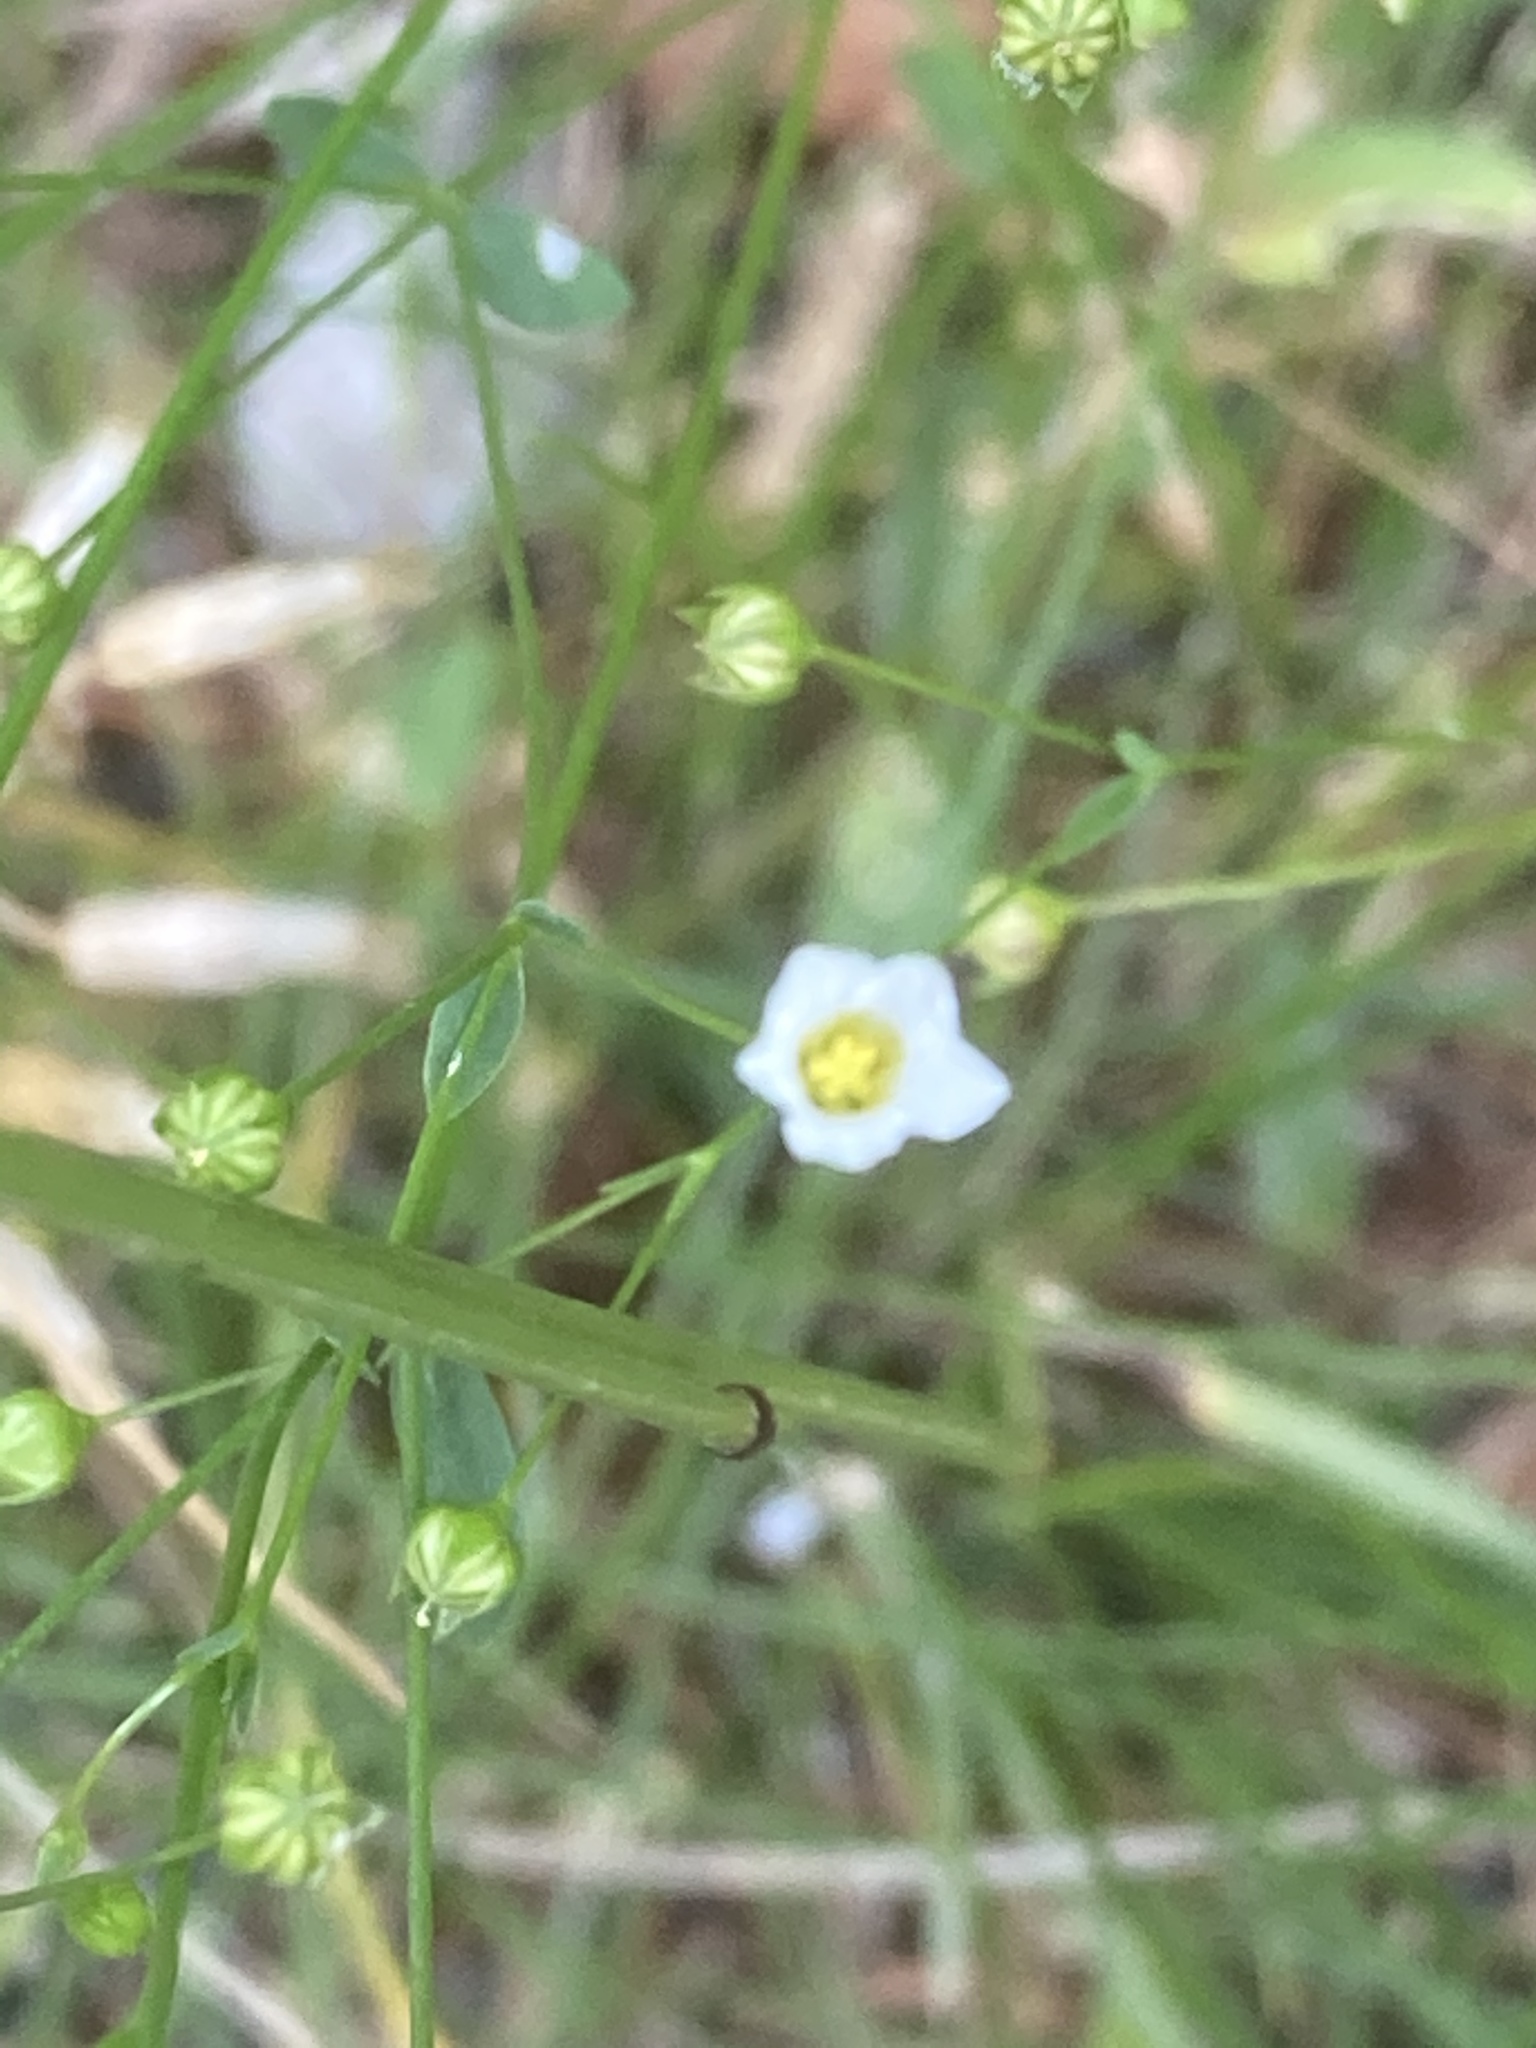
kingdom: Plantae
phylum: Tracheophyta
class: Magnoliopsida
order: Malpighiales
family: Linaceae
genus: Linum
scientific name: Linum catharticum
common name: Fairy flax
